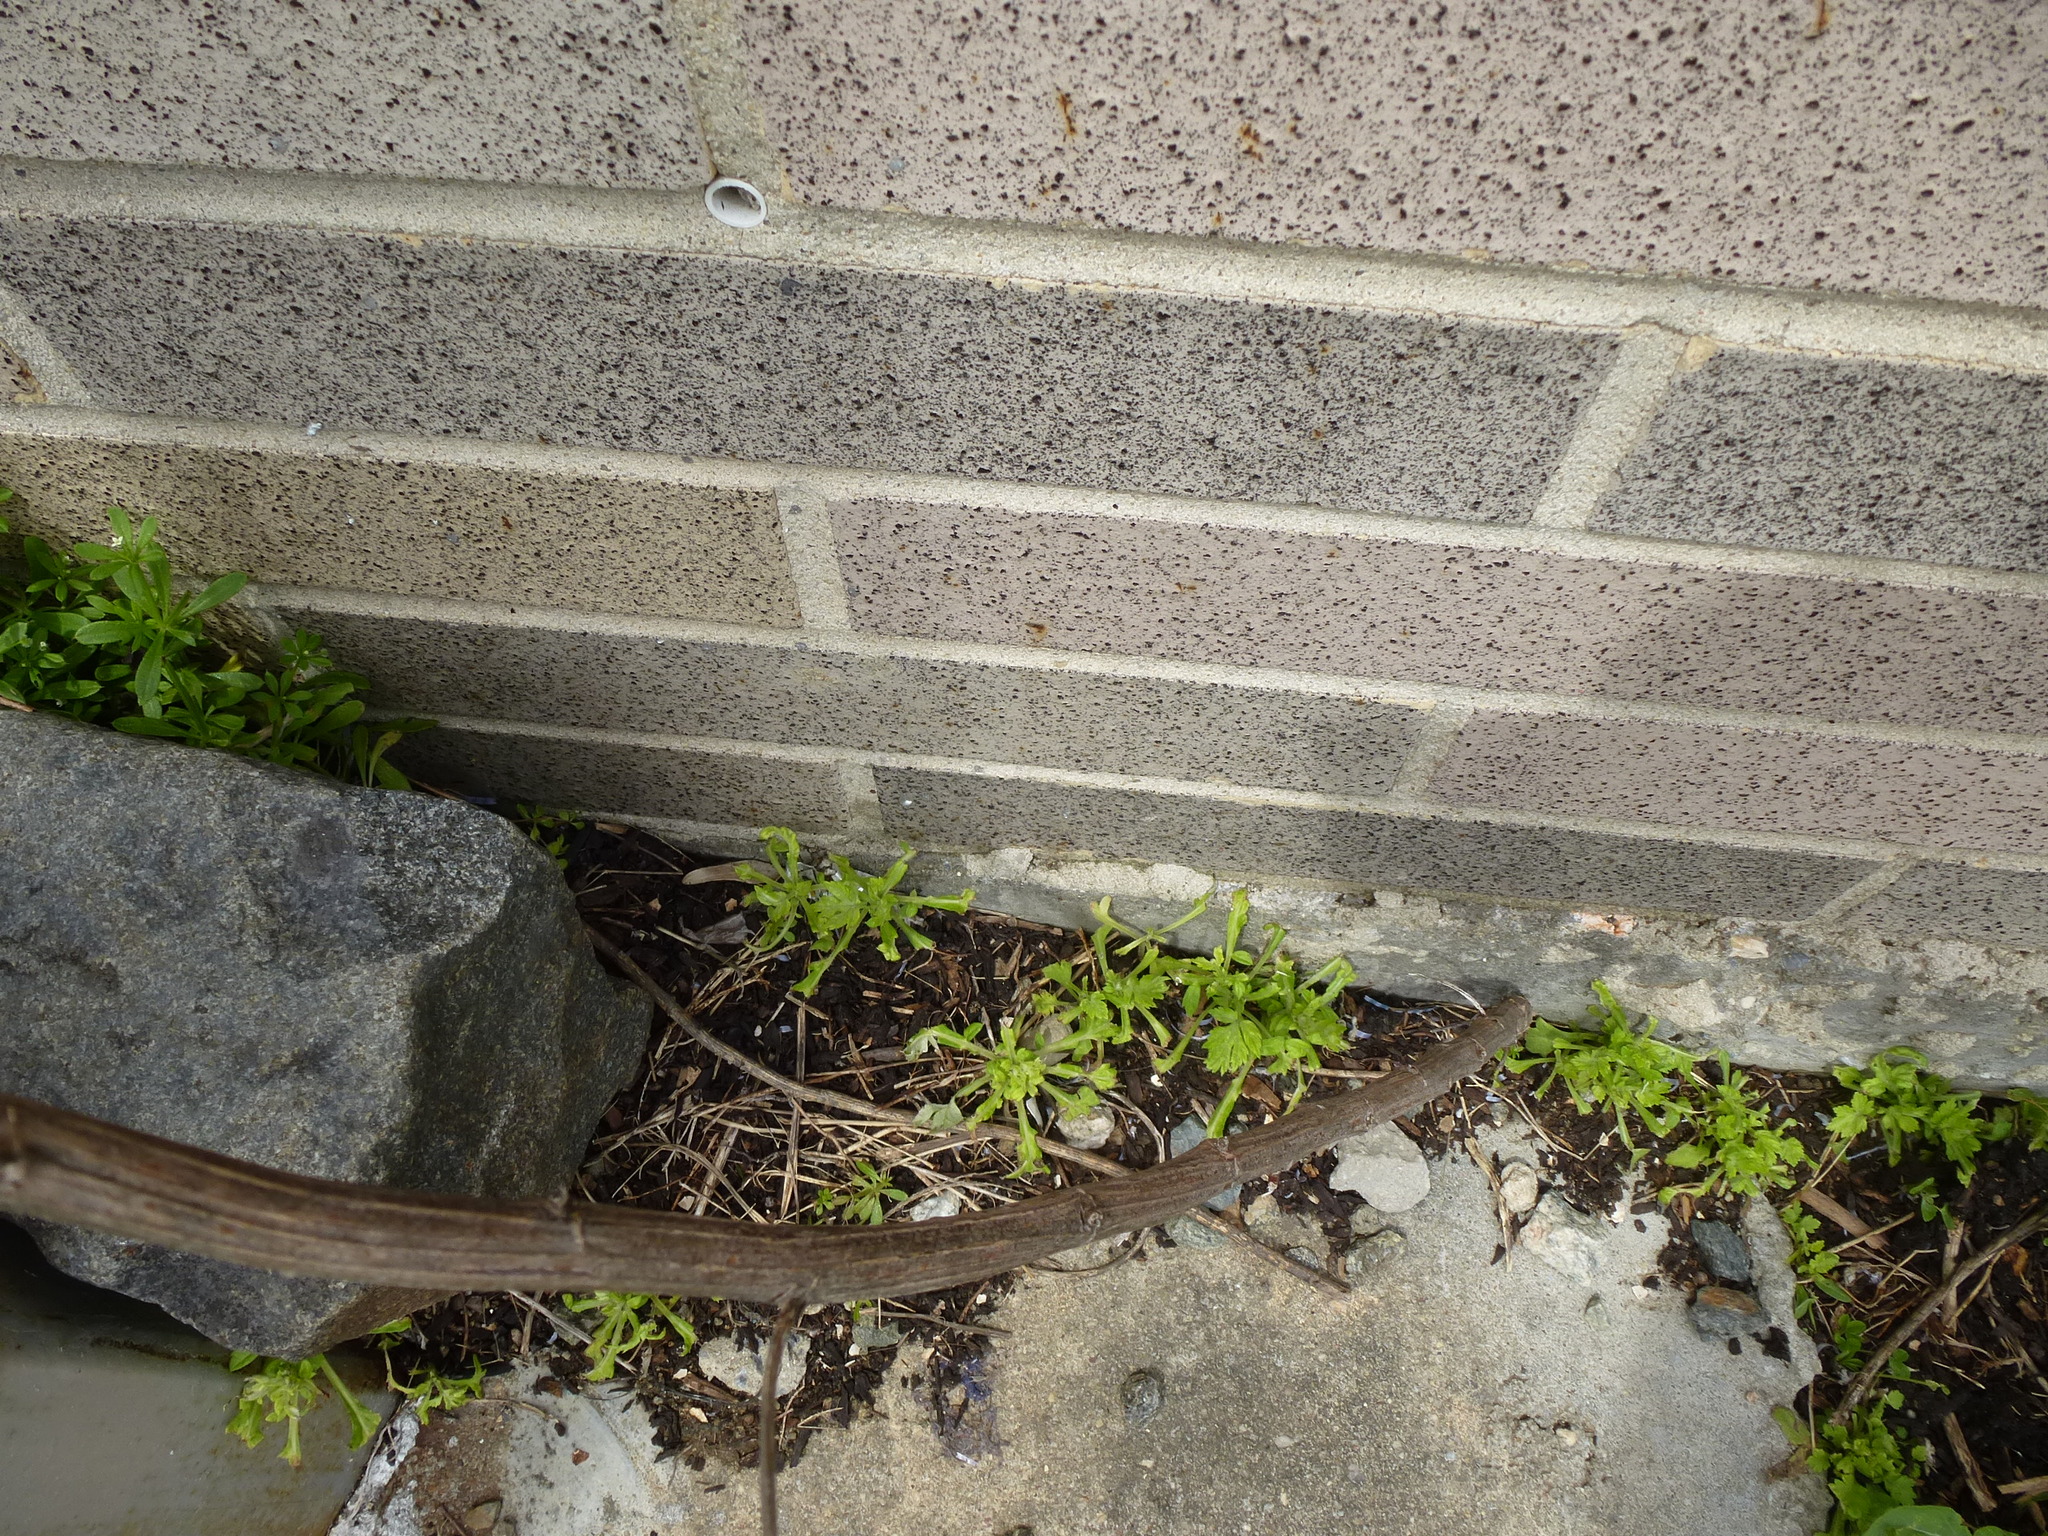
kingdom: Plantae
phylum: Tracheophyta
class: Magnoliopsida
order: Asterales
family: Asteraceae
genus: Artemisia
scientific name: Artemisia vulgaris
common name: Mugwort
